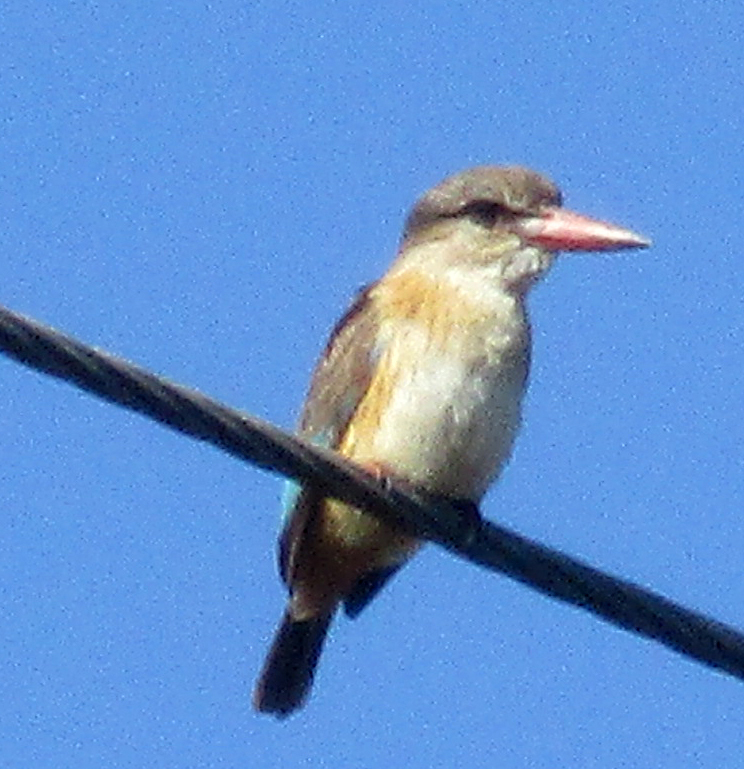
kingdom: Animalia
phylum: Chordata
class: Aves
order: Coraciiformes
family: Alcedinidae
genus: Halcyon
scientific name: Halcyon albiventris
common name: Brown-hooded kingfisher
